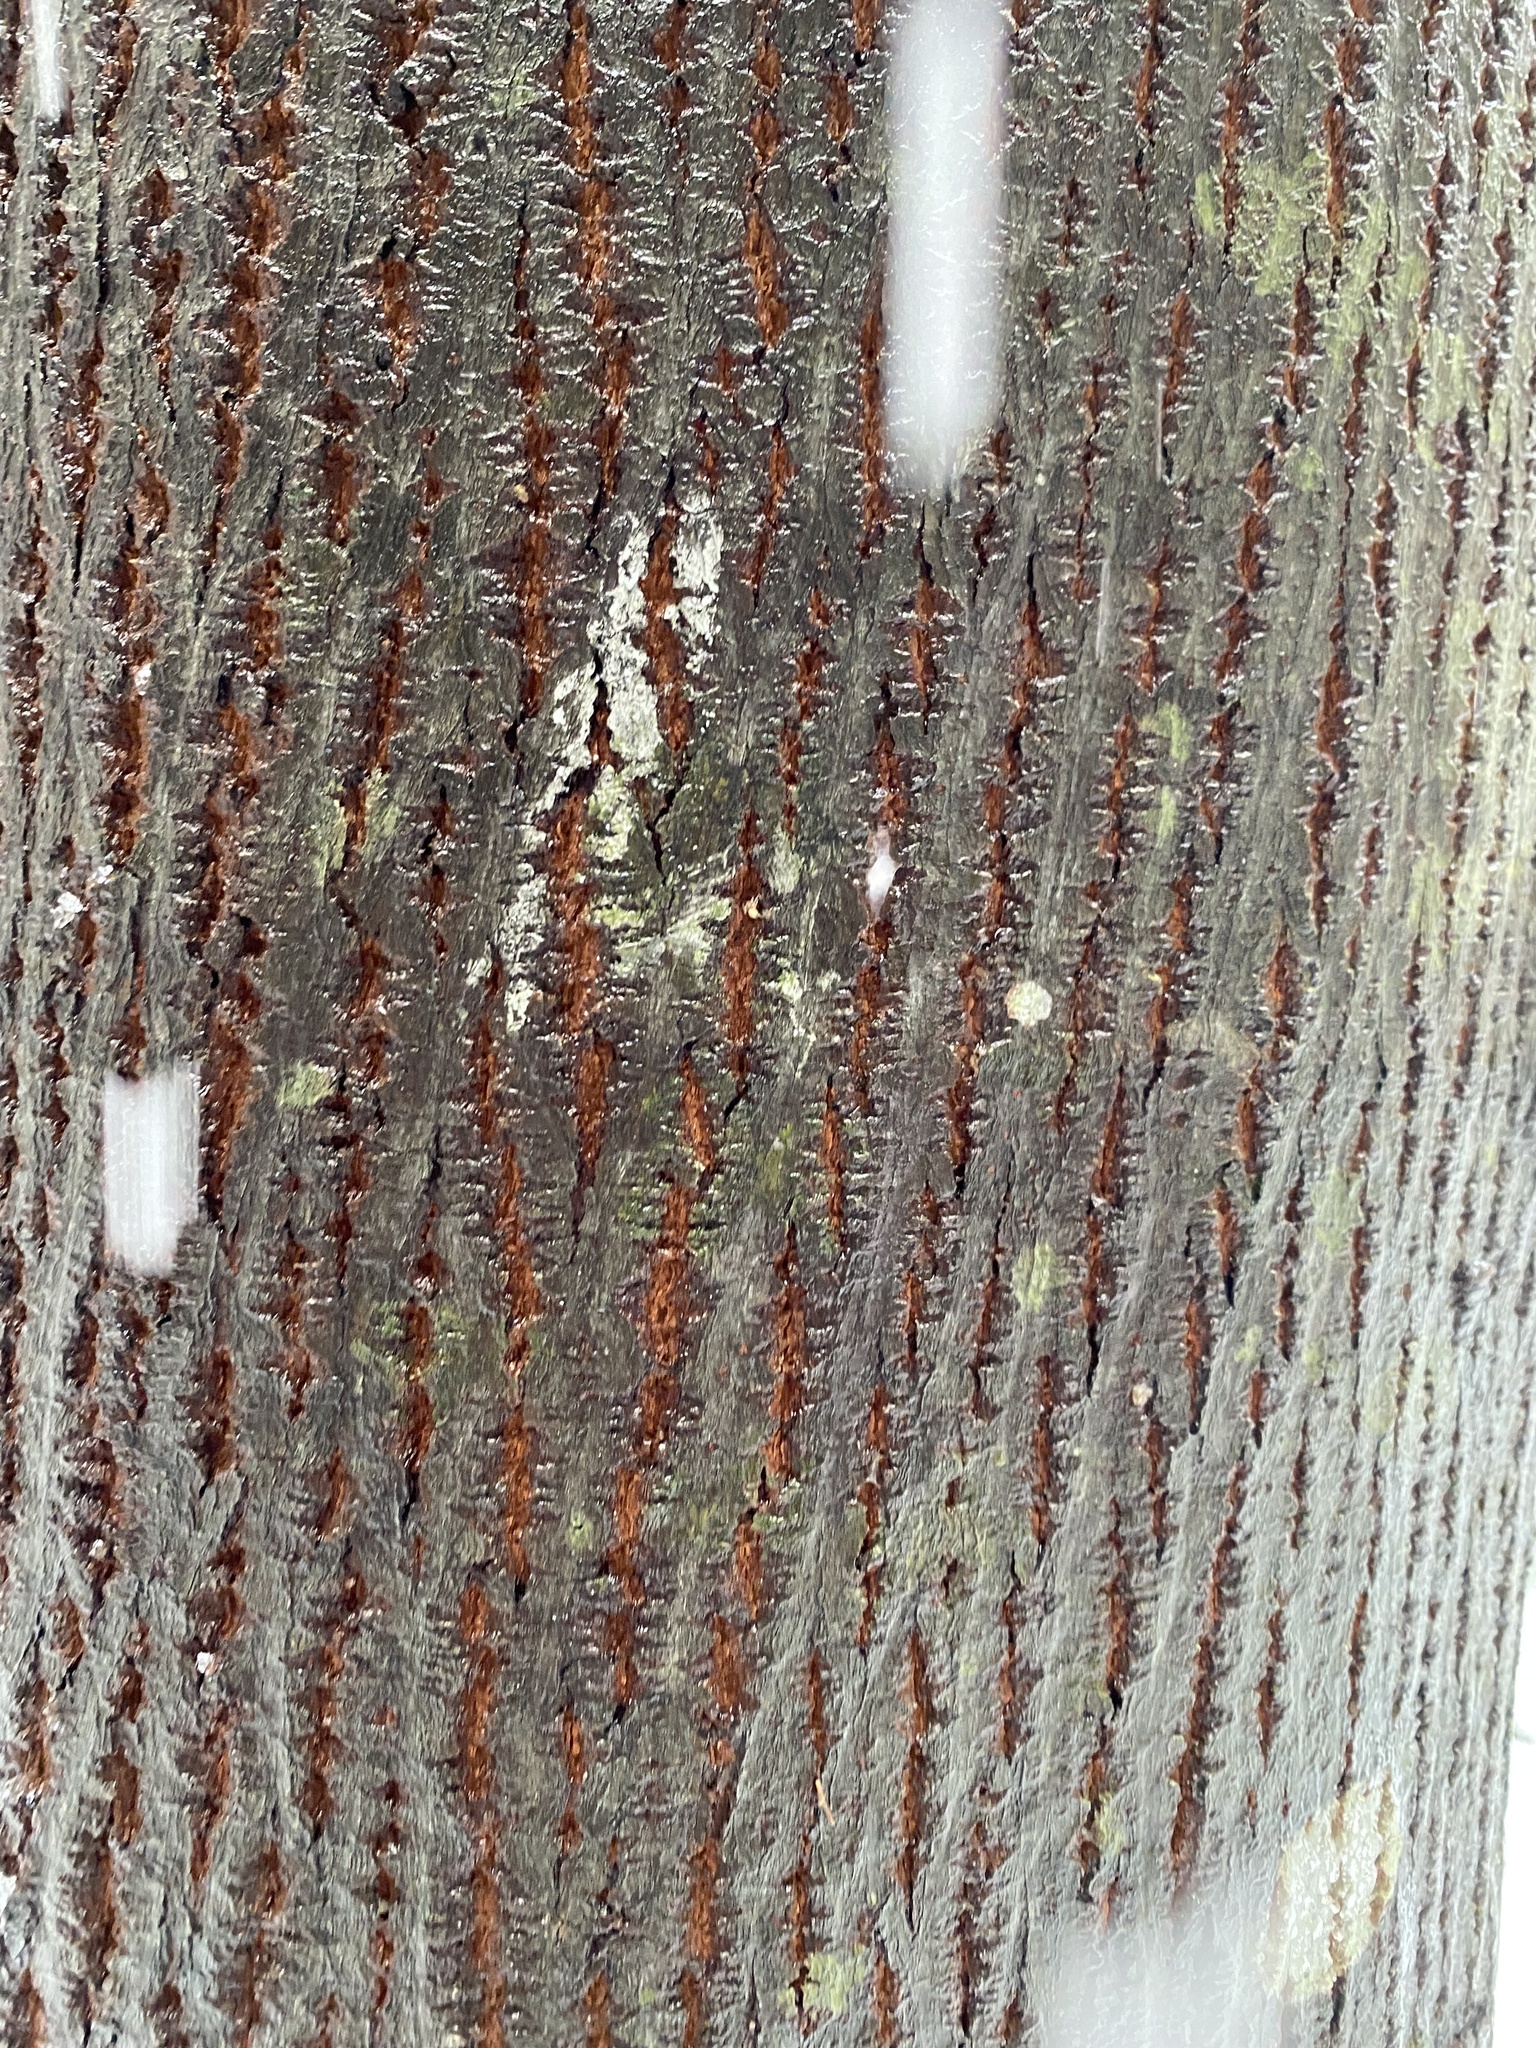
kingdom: Plantae
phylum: Tracheophyta
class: Magnoliopsida
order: Sapindales
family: Sapindaceae
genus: Acer
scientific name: Acer macrophyllum
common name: Oregon maple
